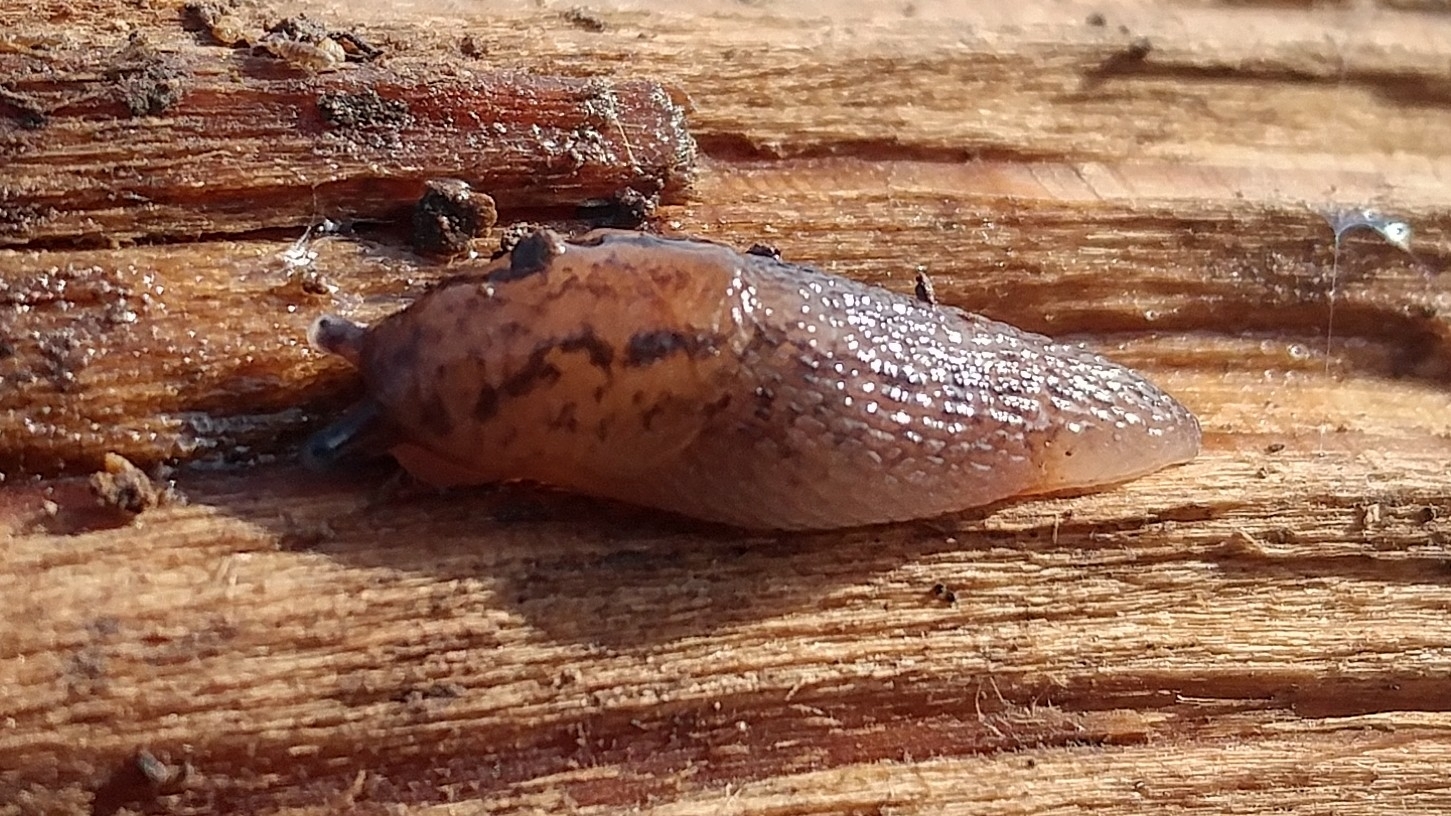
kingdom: Animalia
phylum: Mollusca
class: Gastropoda
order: Stylommatophora
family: Limacidae
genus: Ambigolimax
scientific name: Ambigolimax
